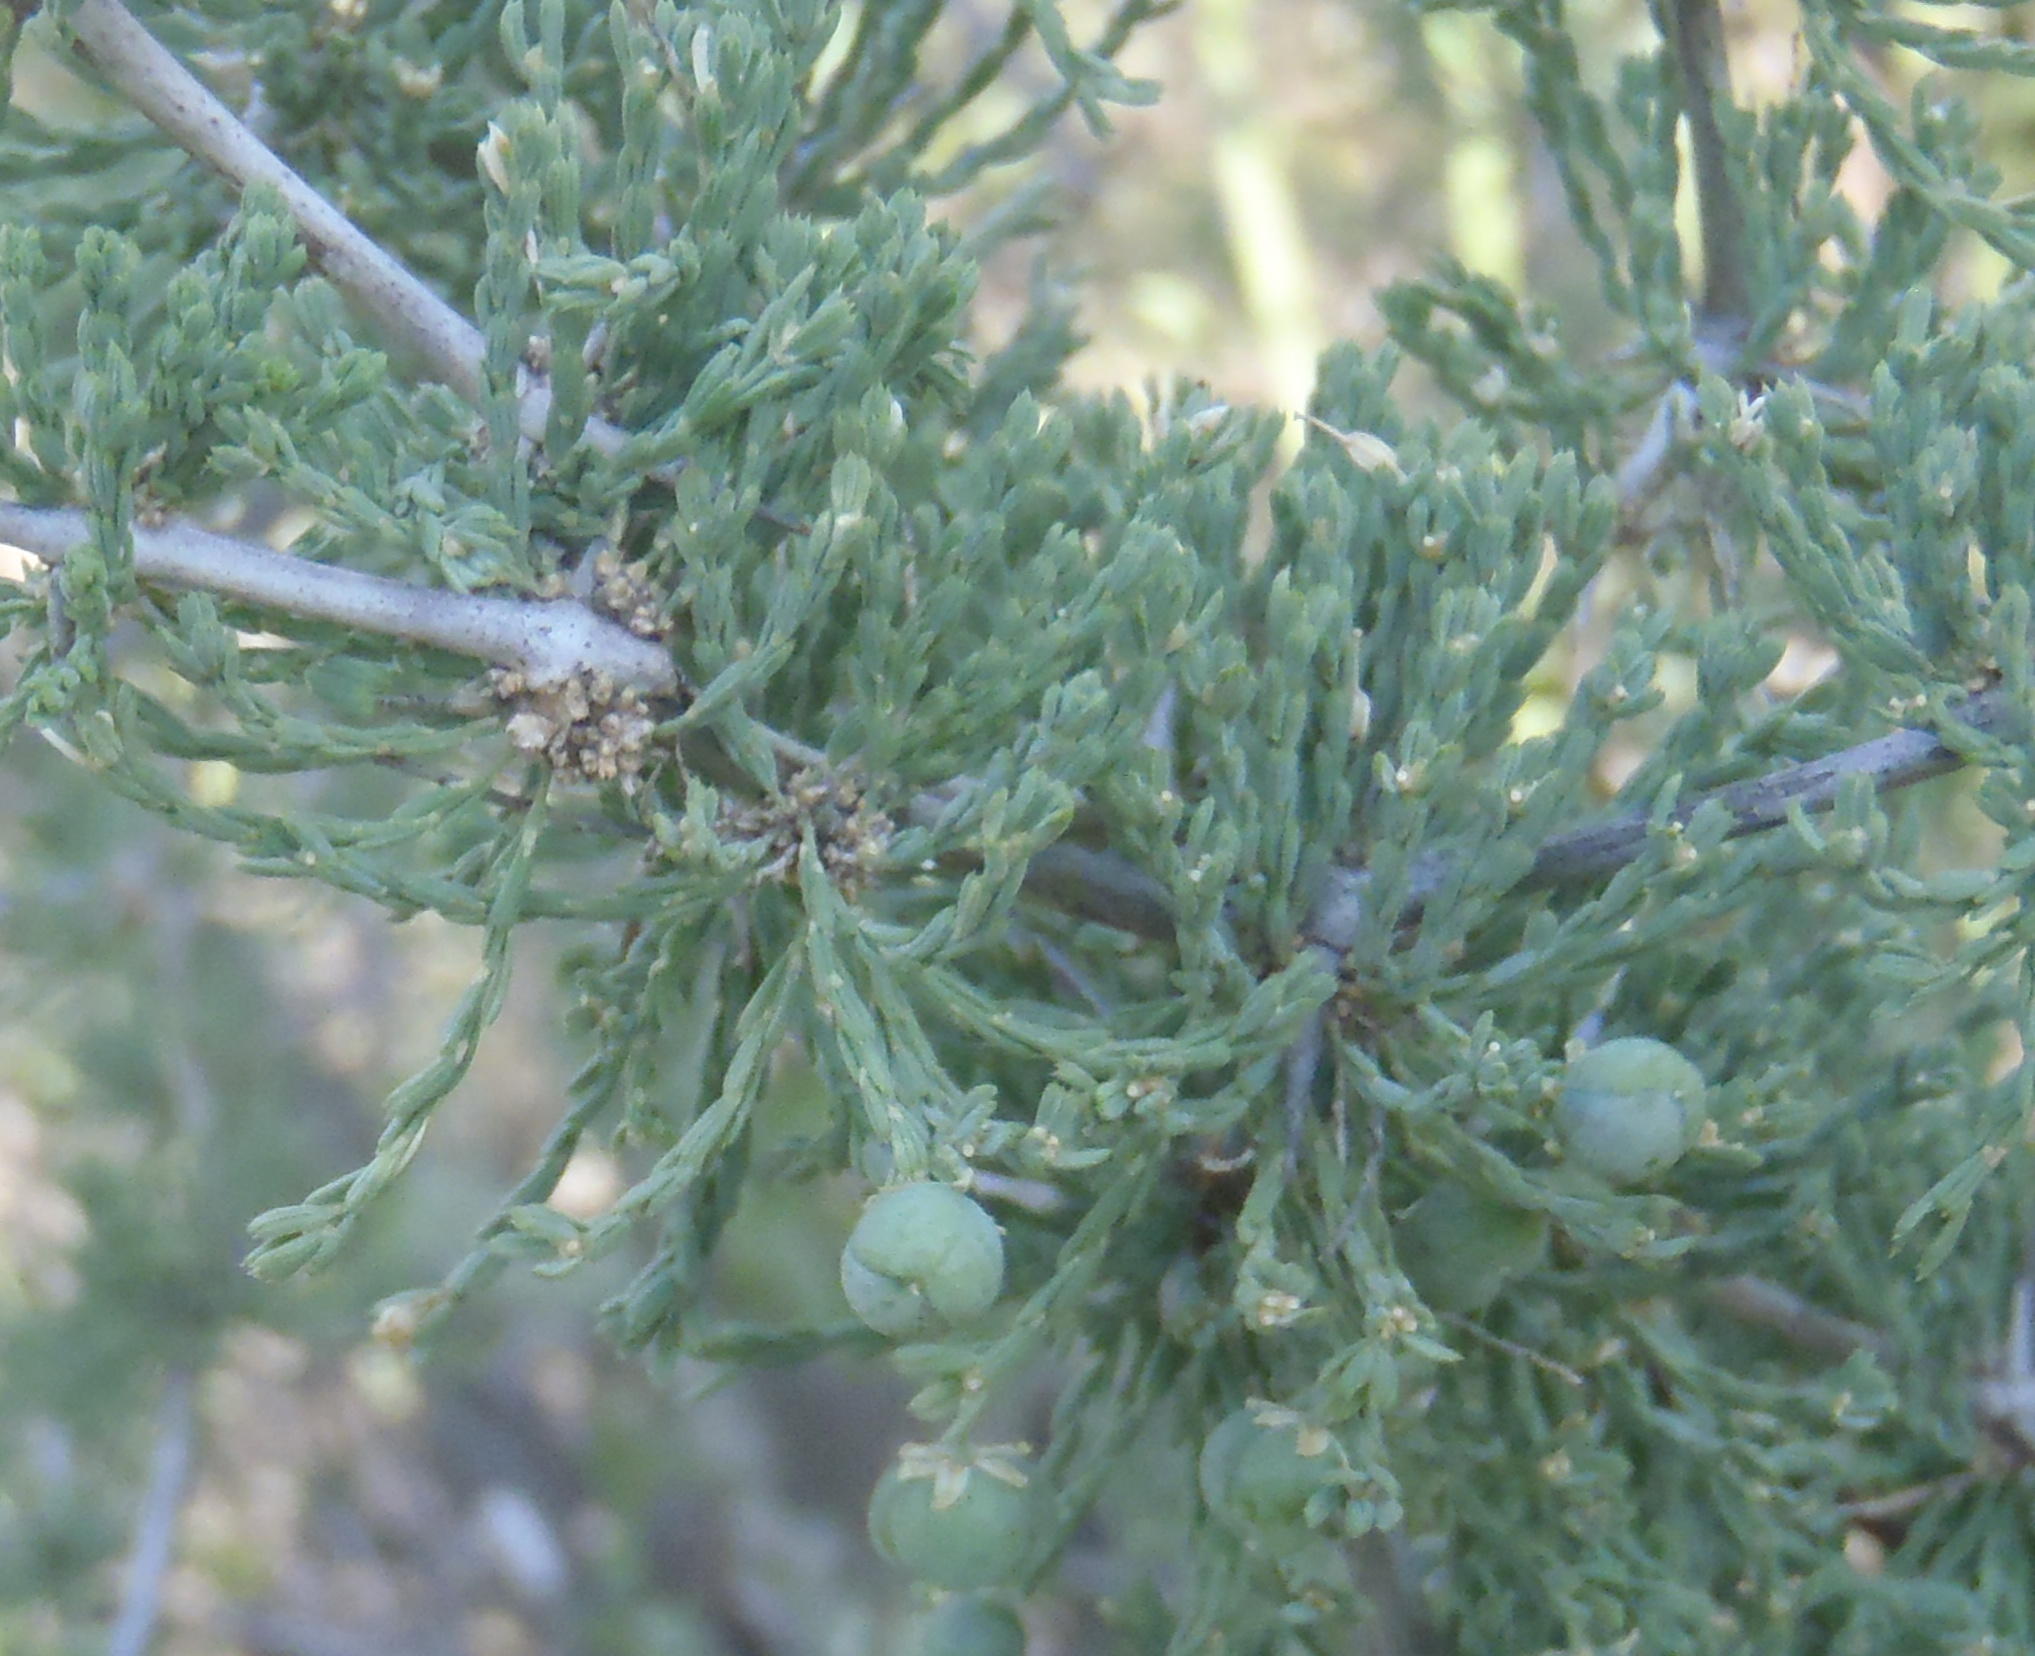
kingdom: Plantae
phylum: Tracheophyta
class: Liliopsida
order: Asparagales
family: Asparagaceae
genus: Asparagus
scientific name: Asparagus capensis
